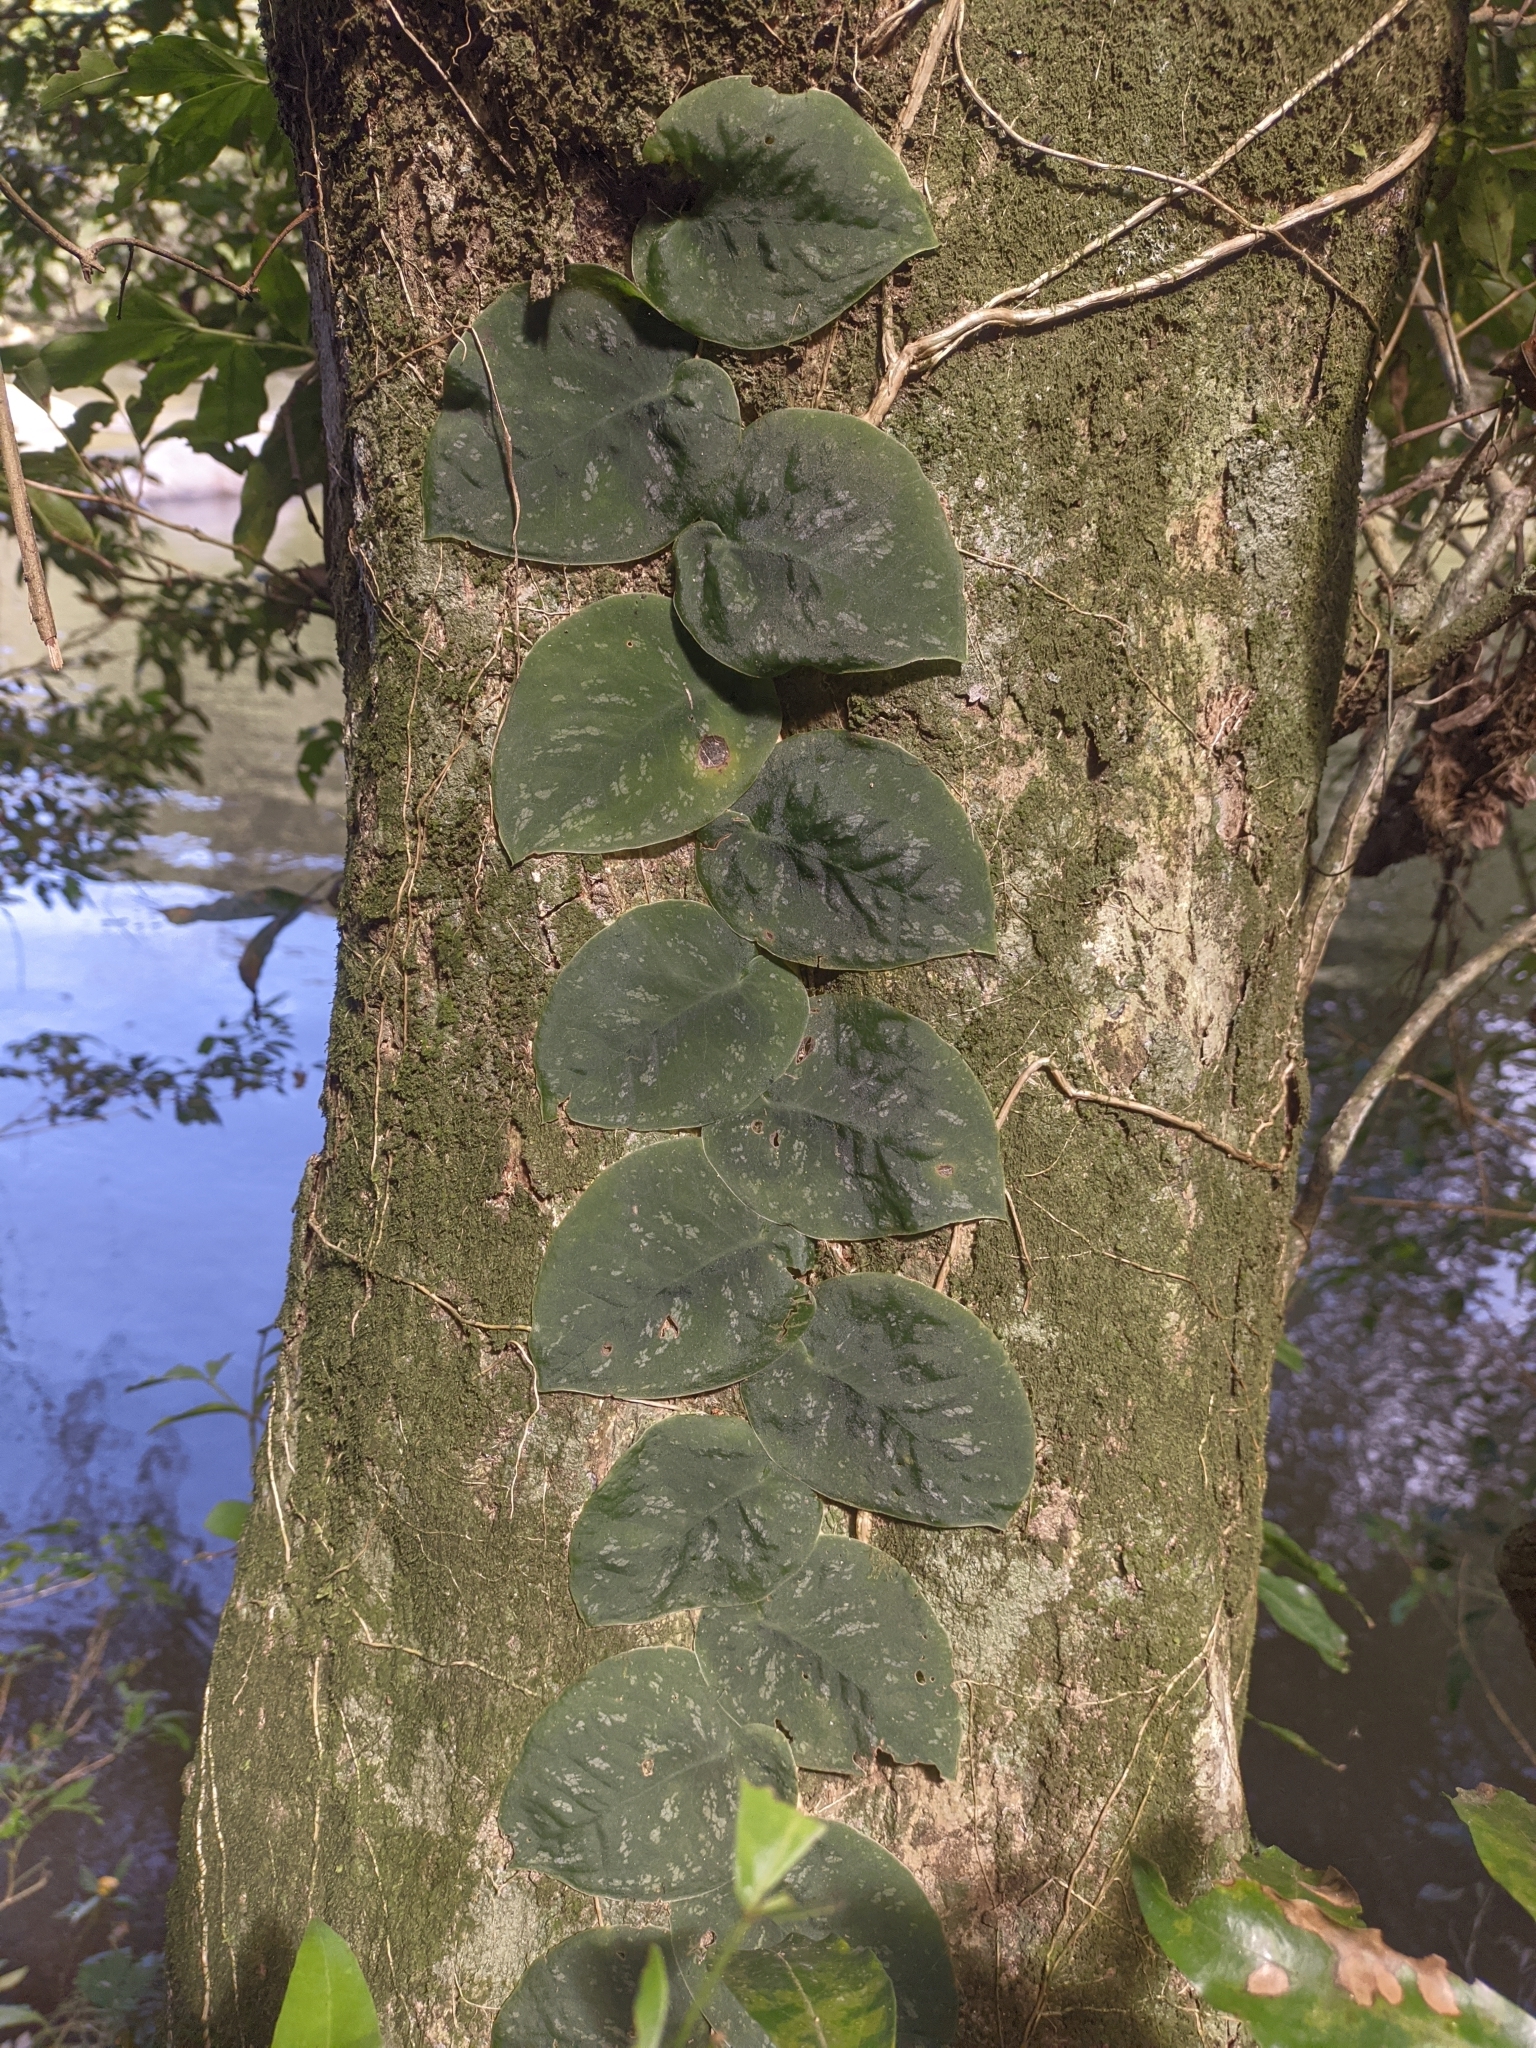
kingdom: Plantae
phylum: Tracheophyta
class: Liliopsida
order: Alismatales
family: Araceae
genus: Monstera
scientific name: Monstera dubia
